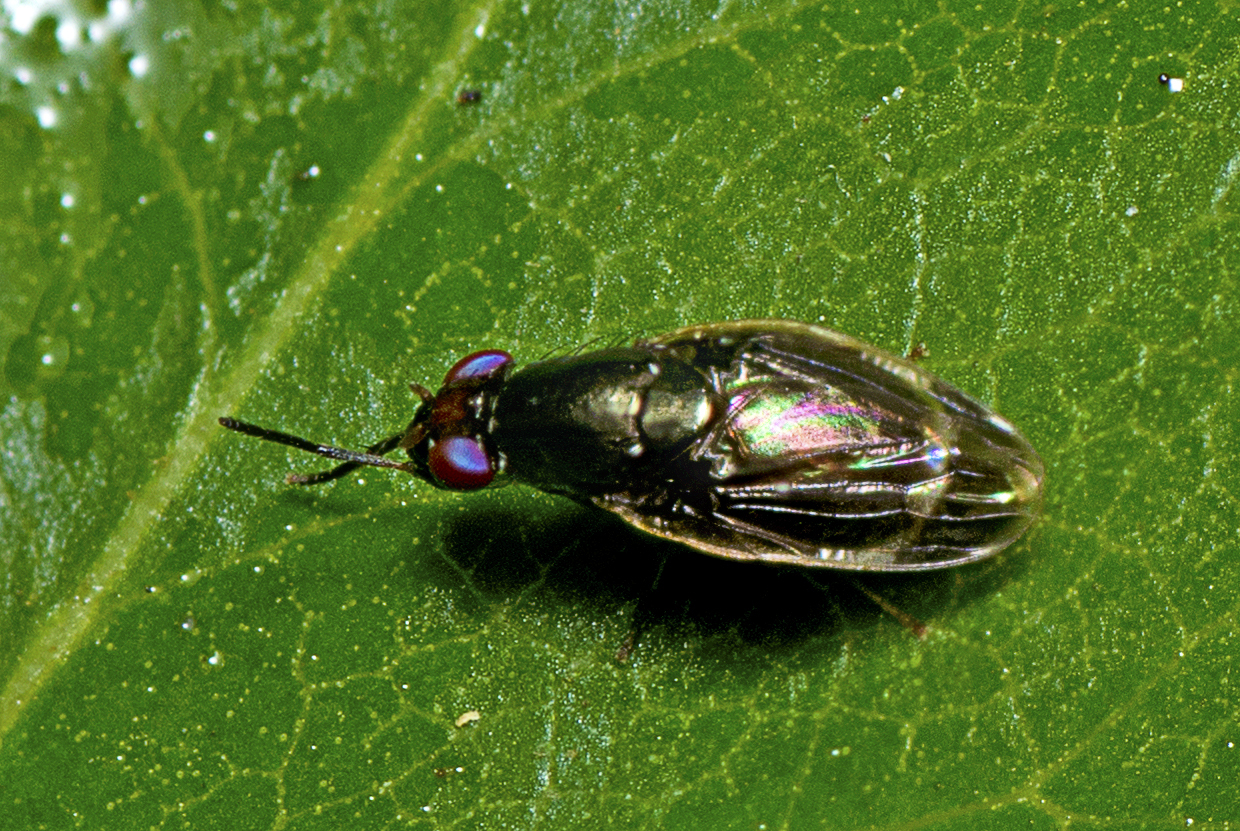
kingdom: Animalia
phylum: Arthropoda
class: Insecta
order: Diptera
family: Lauxaniidae
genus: Depressa
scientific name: Depressa albicosta
